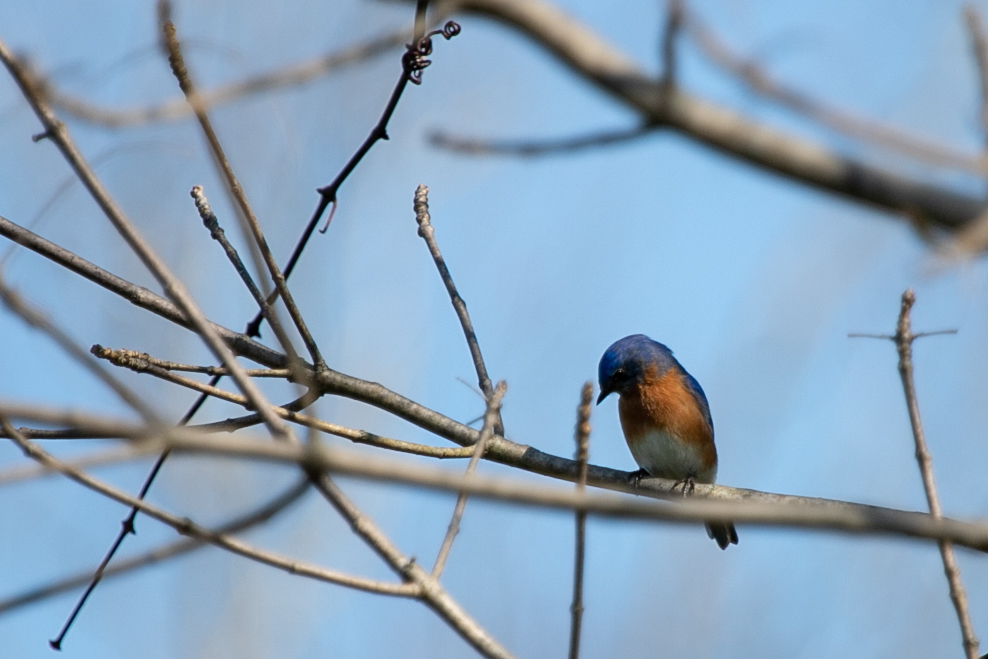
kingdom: Animalia
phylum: Chordata
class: Aves
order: Passeriformes
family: Turdidae
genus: Sialia
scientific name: Sialia sialis
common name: Eastern bluebird
